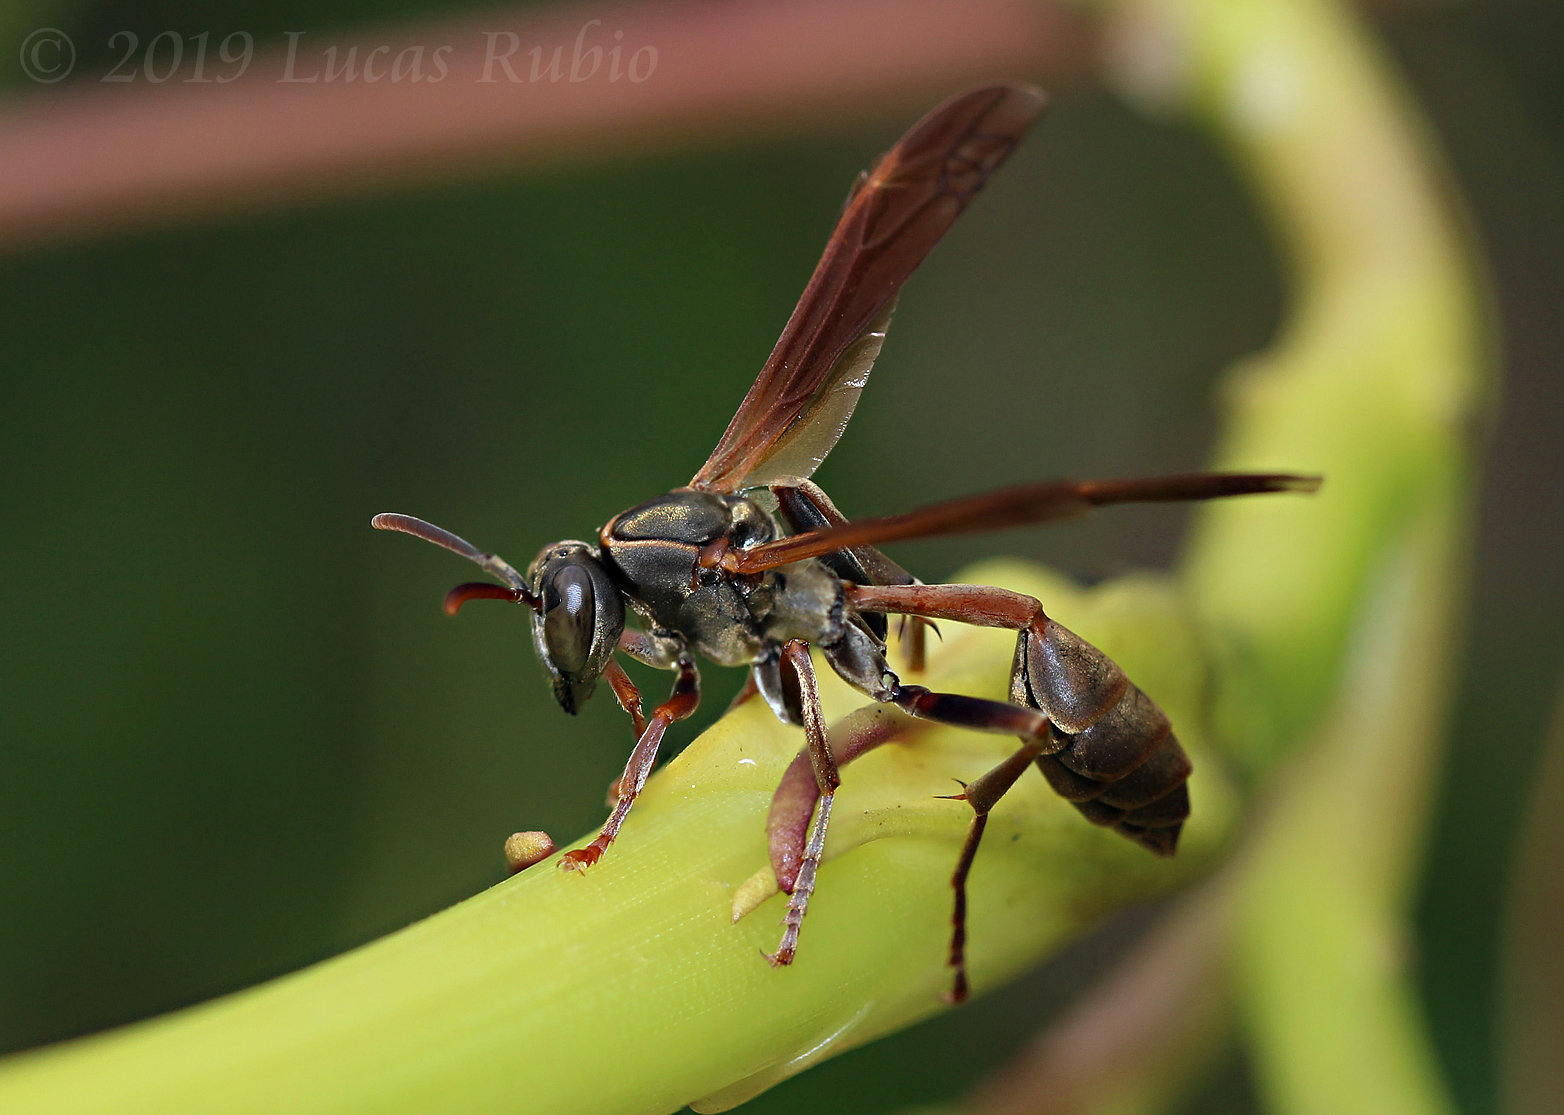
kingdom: Animalia
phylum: Arthropoda
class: Insecta
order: Hymenoptera
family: Vespidae
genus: Mischocyttarus
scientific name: Mischocyttarus drewseni
